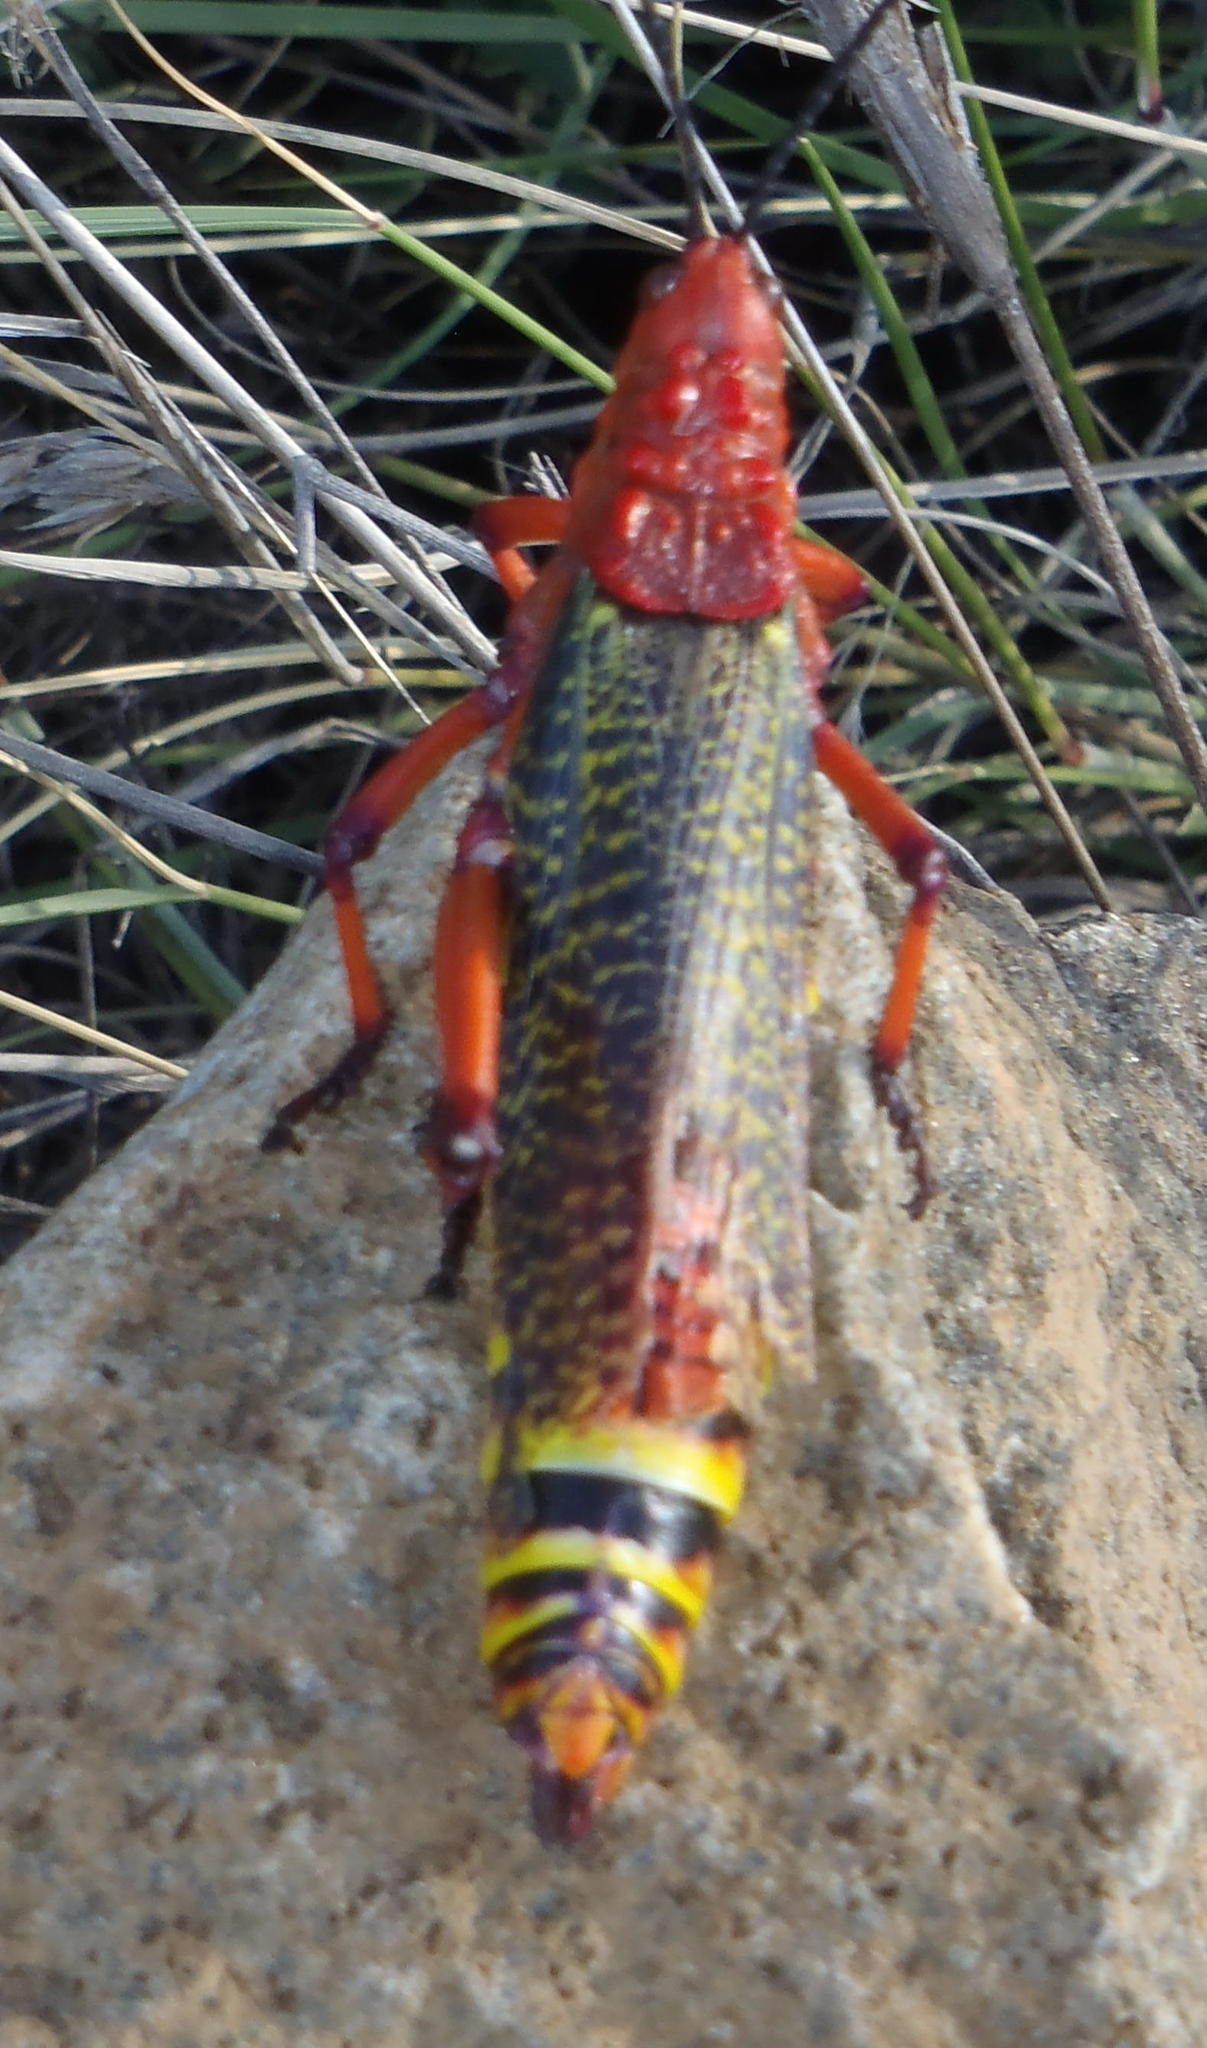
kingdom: Animalia
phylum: Arthropoda
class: Insecta
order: Orthoptera
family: Pyrgomorphidae
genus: Phymateus
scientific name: Phymateus morbillosus
